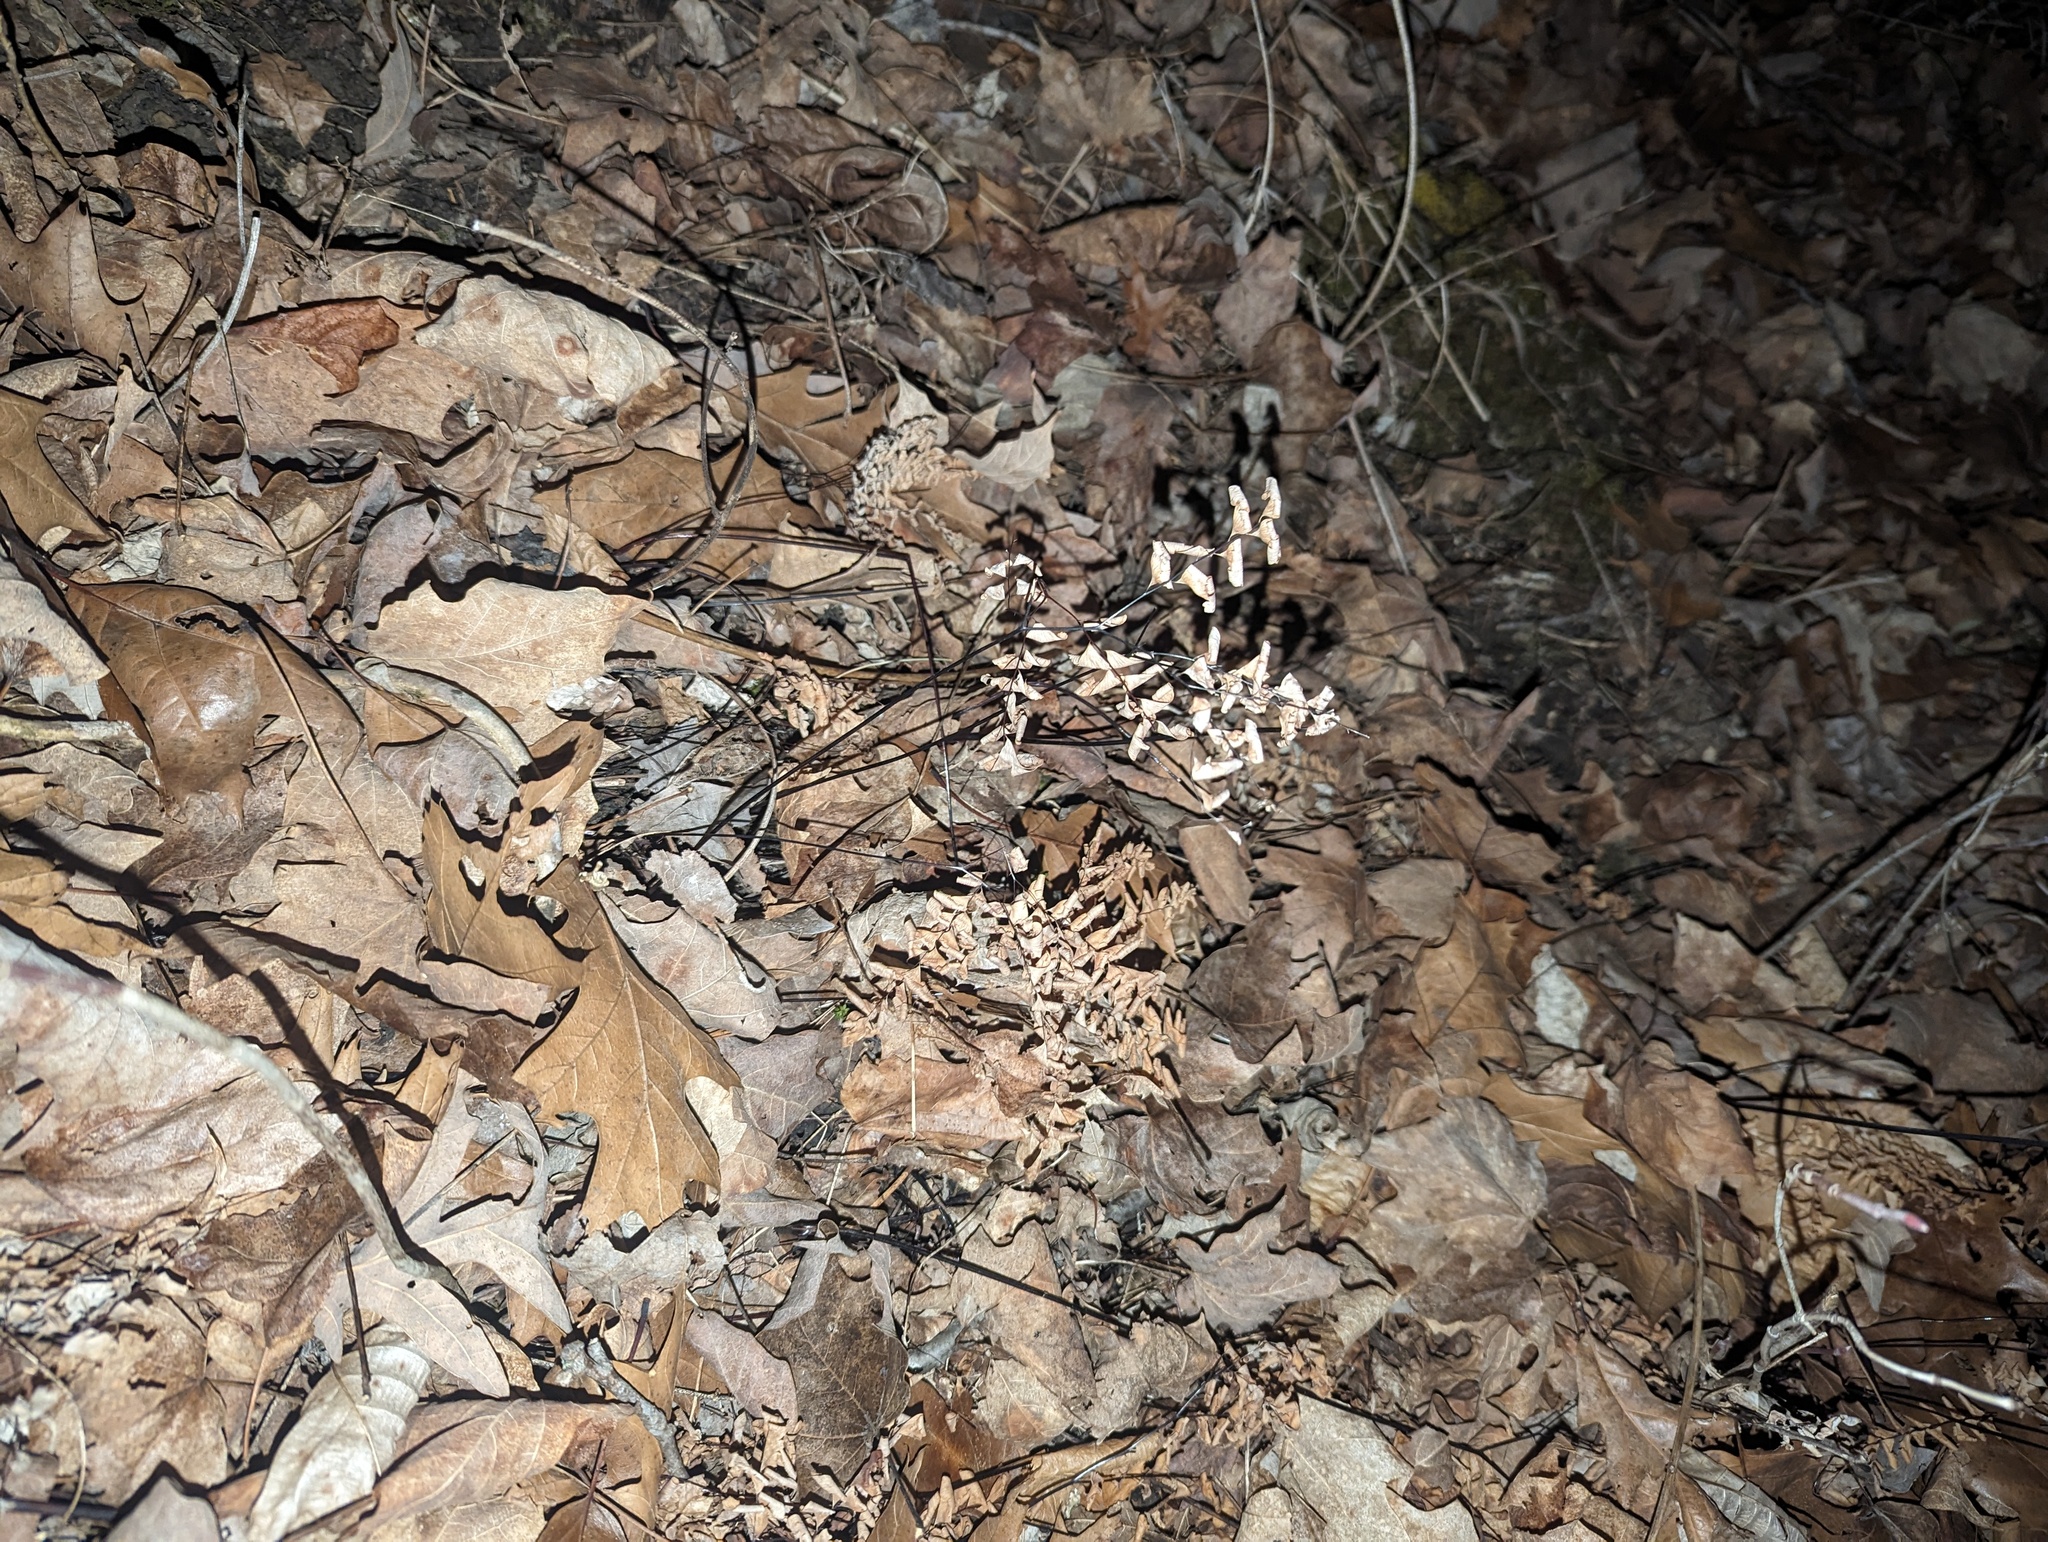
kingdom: Plantae
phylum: Tracheophyta
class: Polypodiopsida
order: Polypodiales
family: Pteridaceae
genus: Adiantum
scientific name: Adiantum pedatum
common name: Five-finger fern
